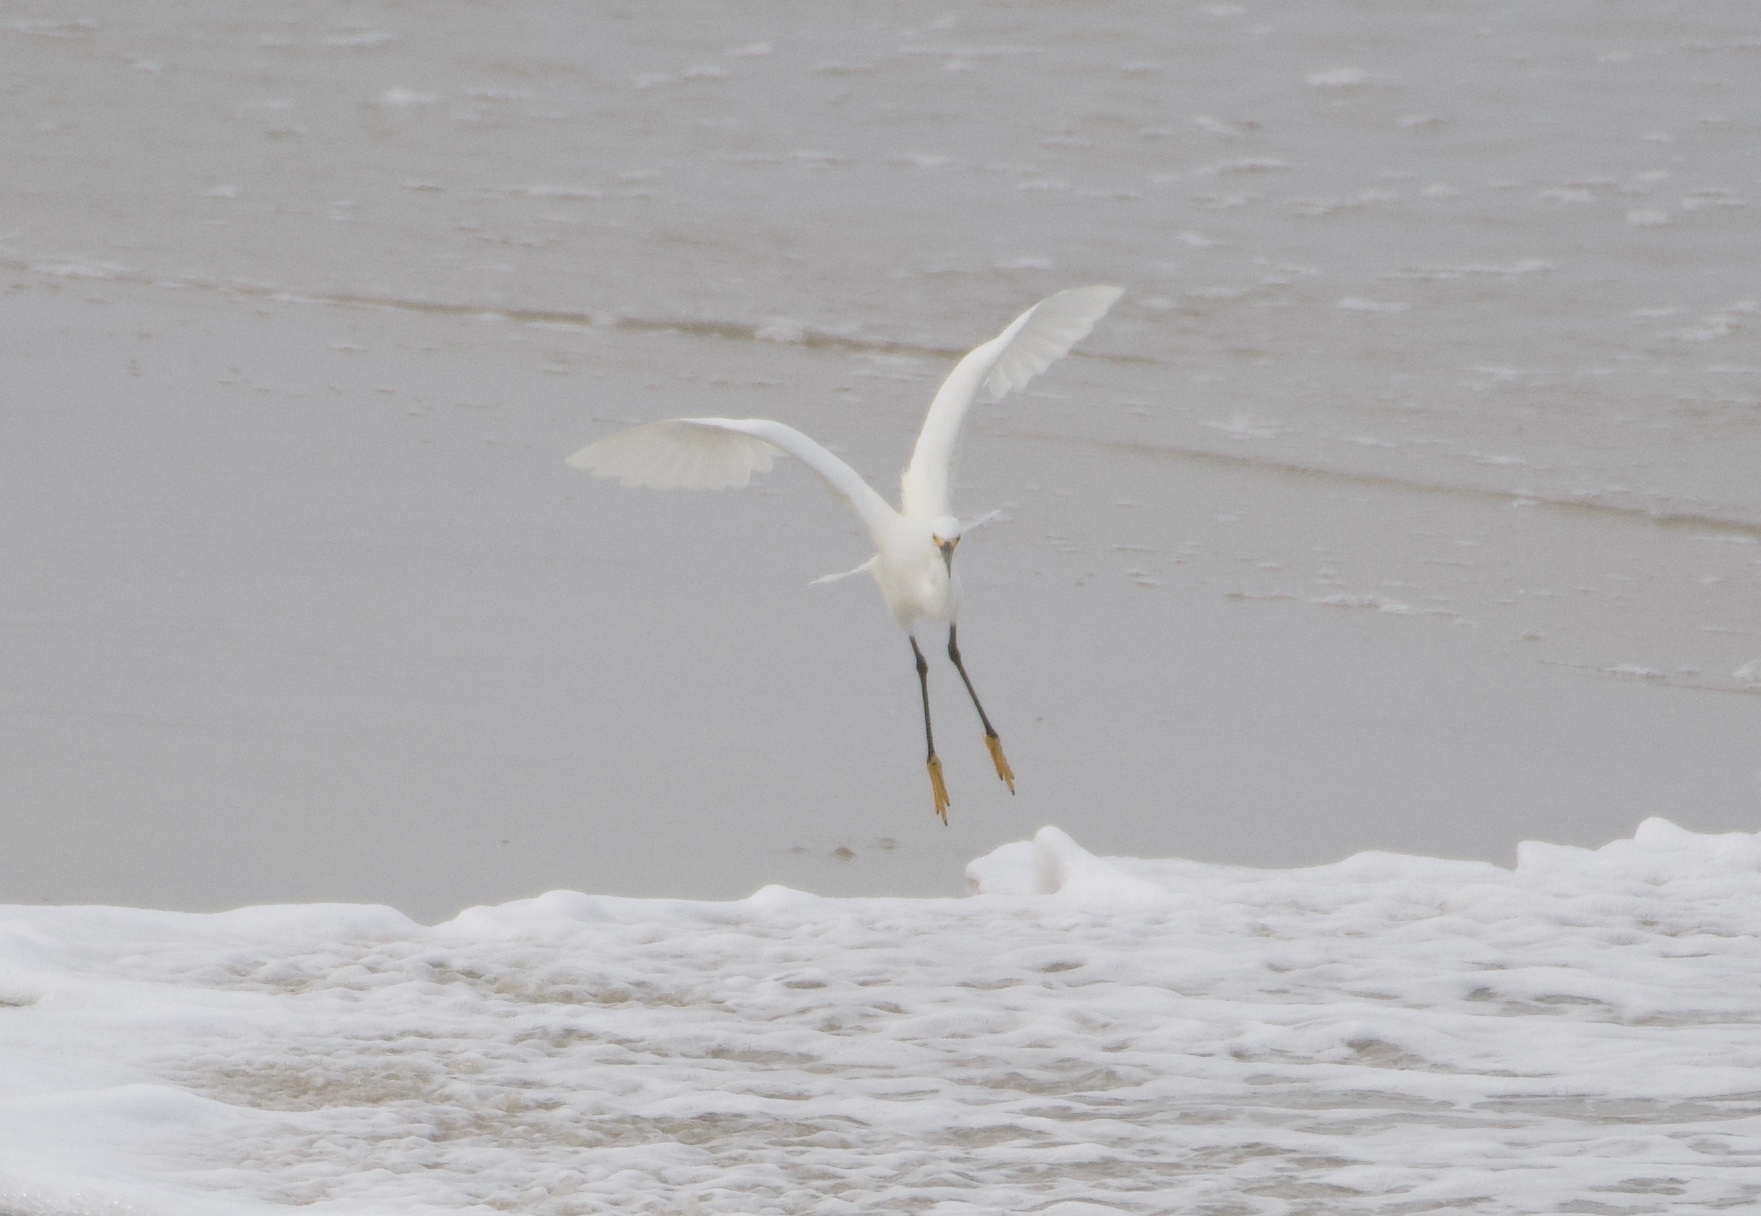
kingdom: Animalia
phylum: Chordata
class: Aves
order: Pelecaniformes
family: Ardeidae
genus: Egretta
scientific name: Egretta thula
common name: Snowy egret
